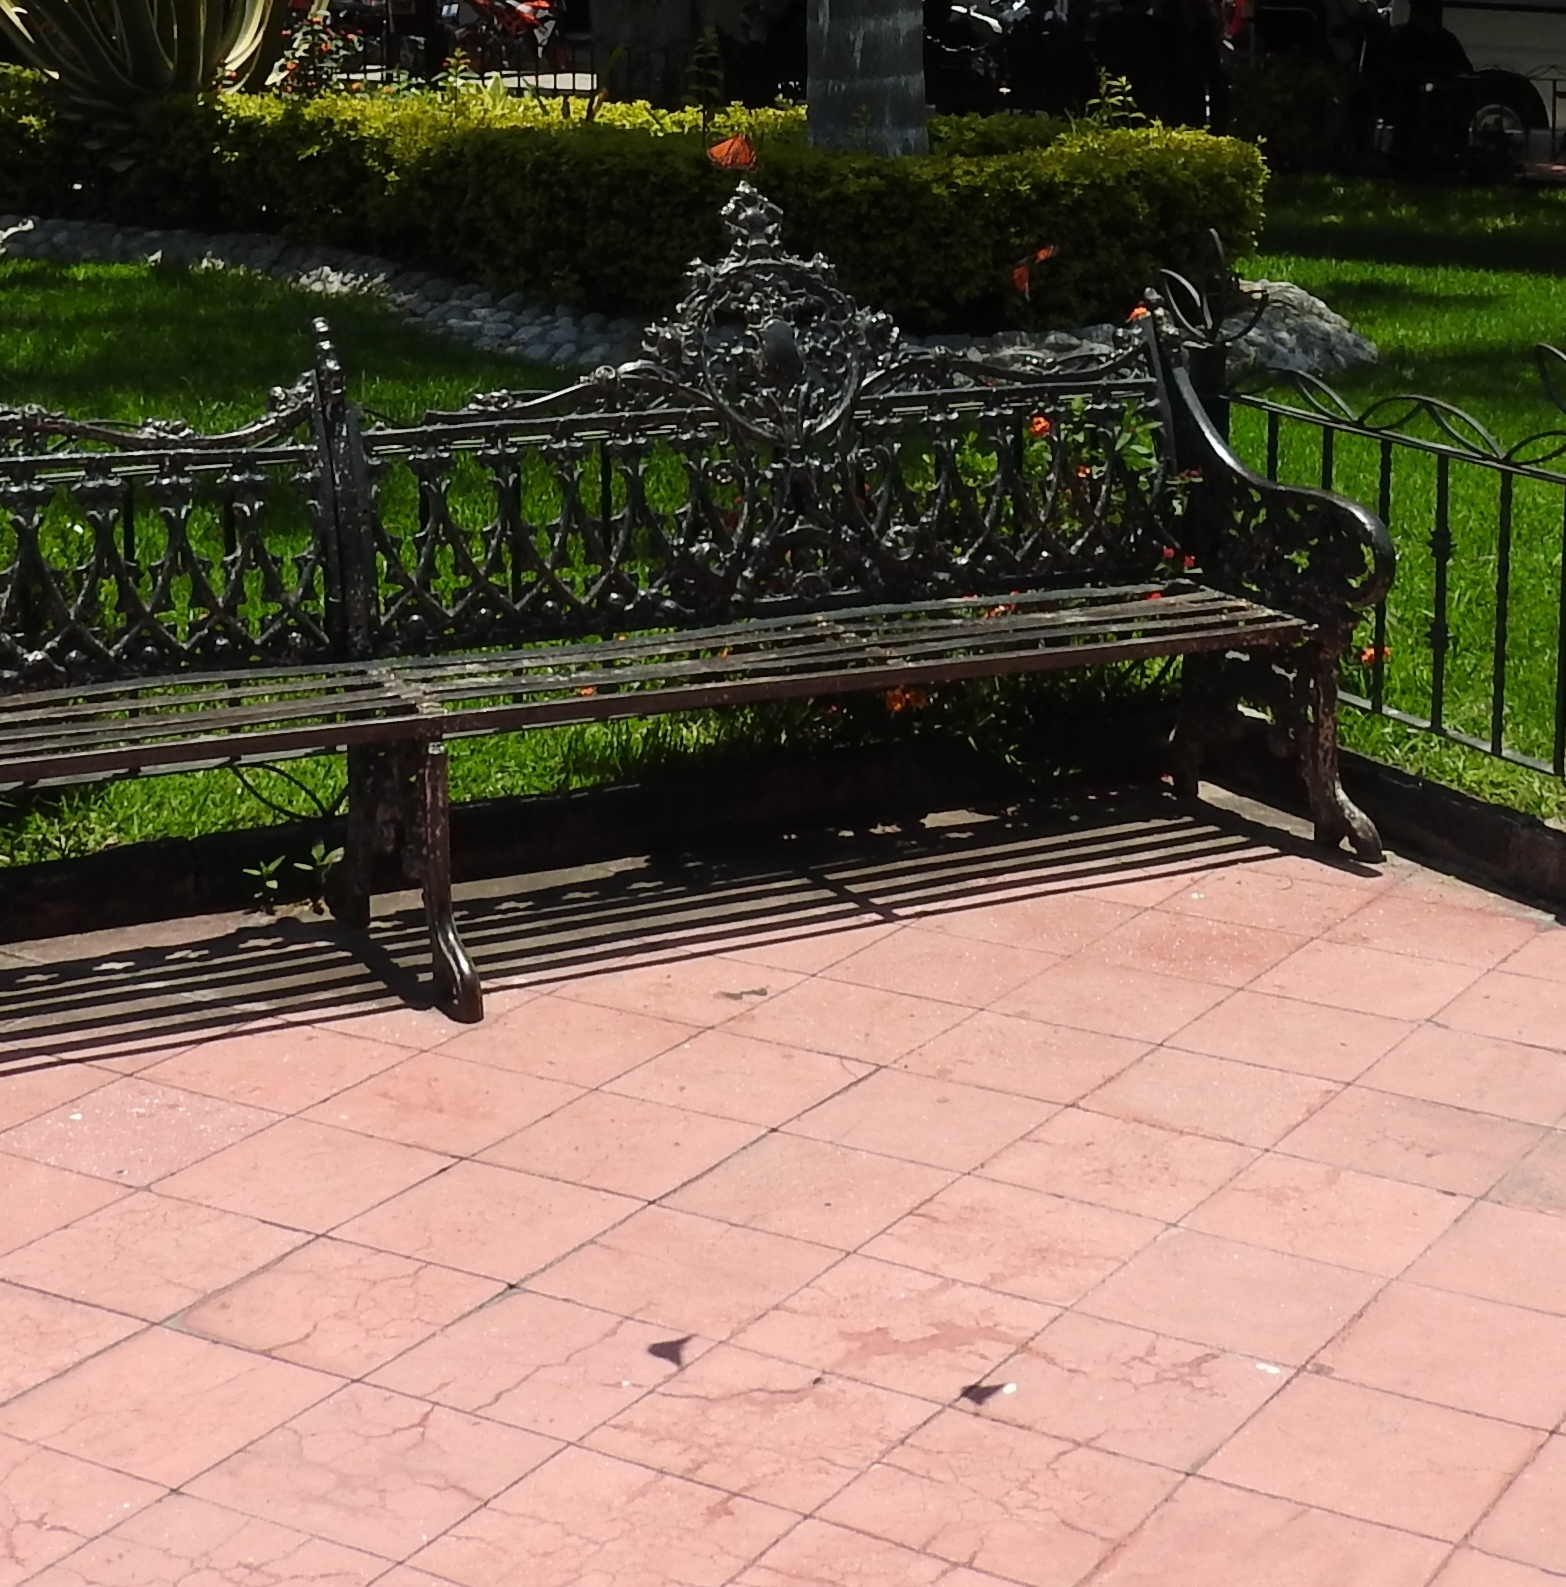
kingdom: Animalia
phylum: Arthropoda
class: Insecta
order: Lepidoptera
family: Nymphalidae
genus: Danaus
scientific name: Danaus plexippus
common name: Monarch
